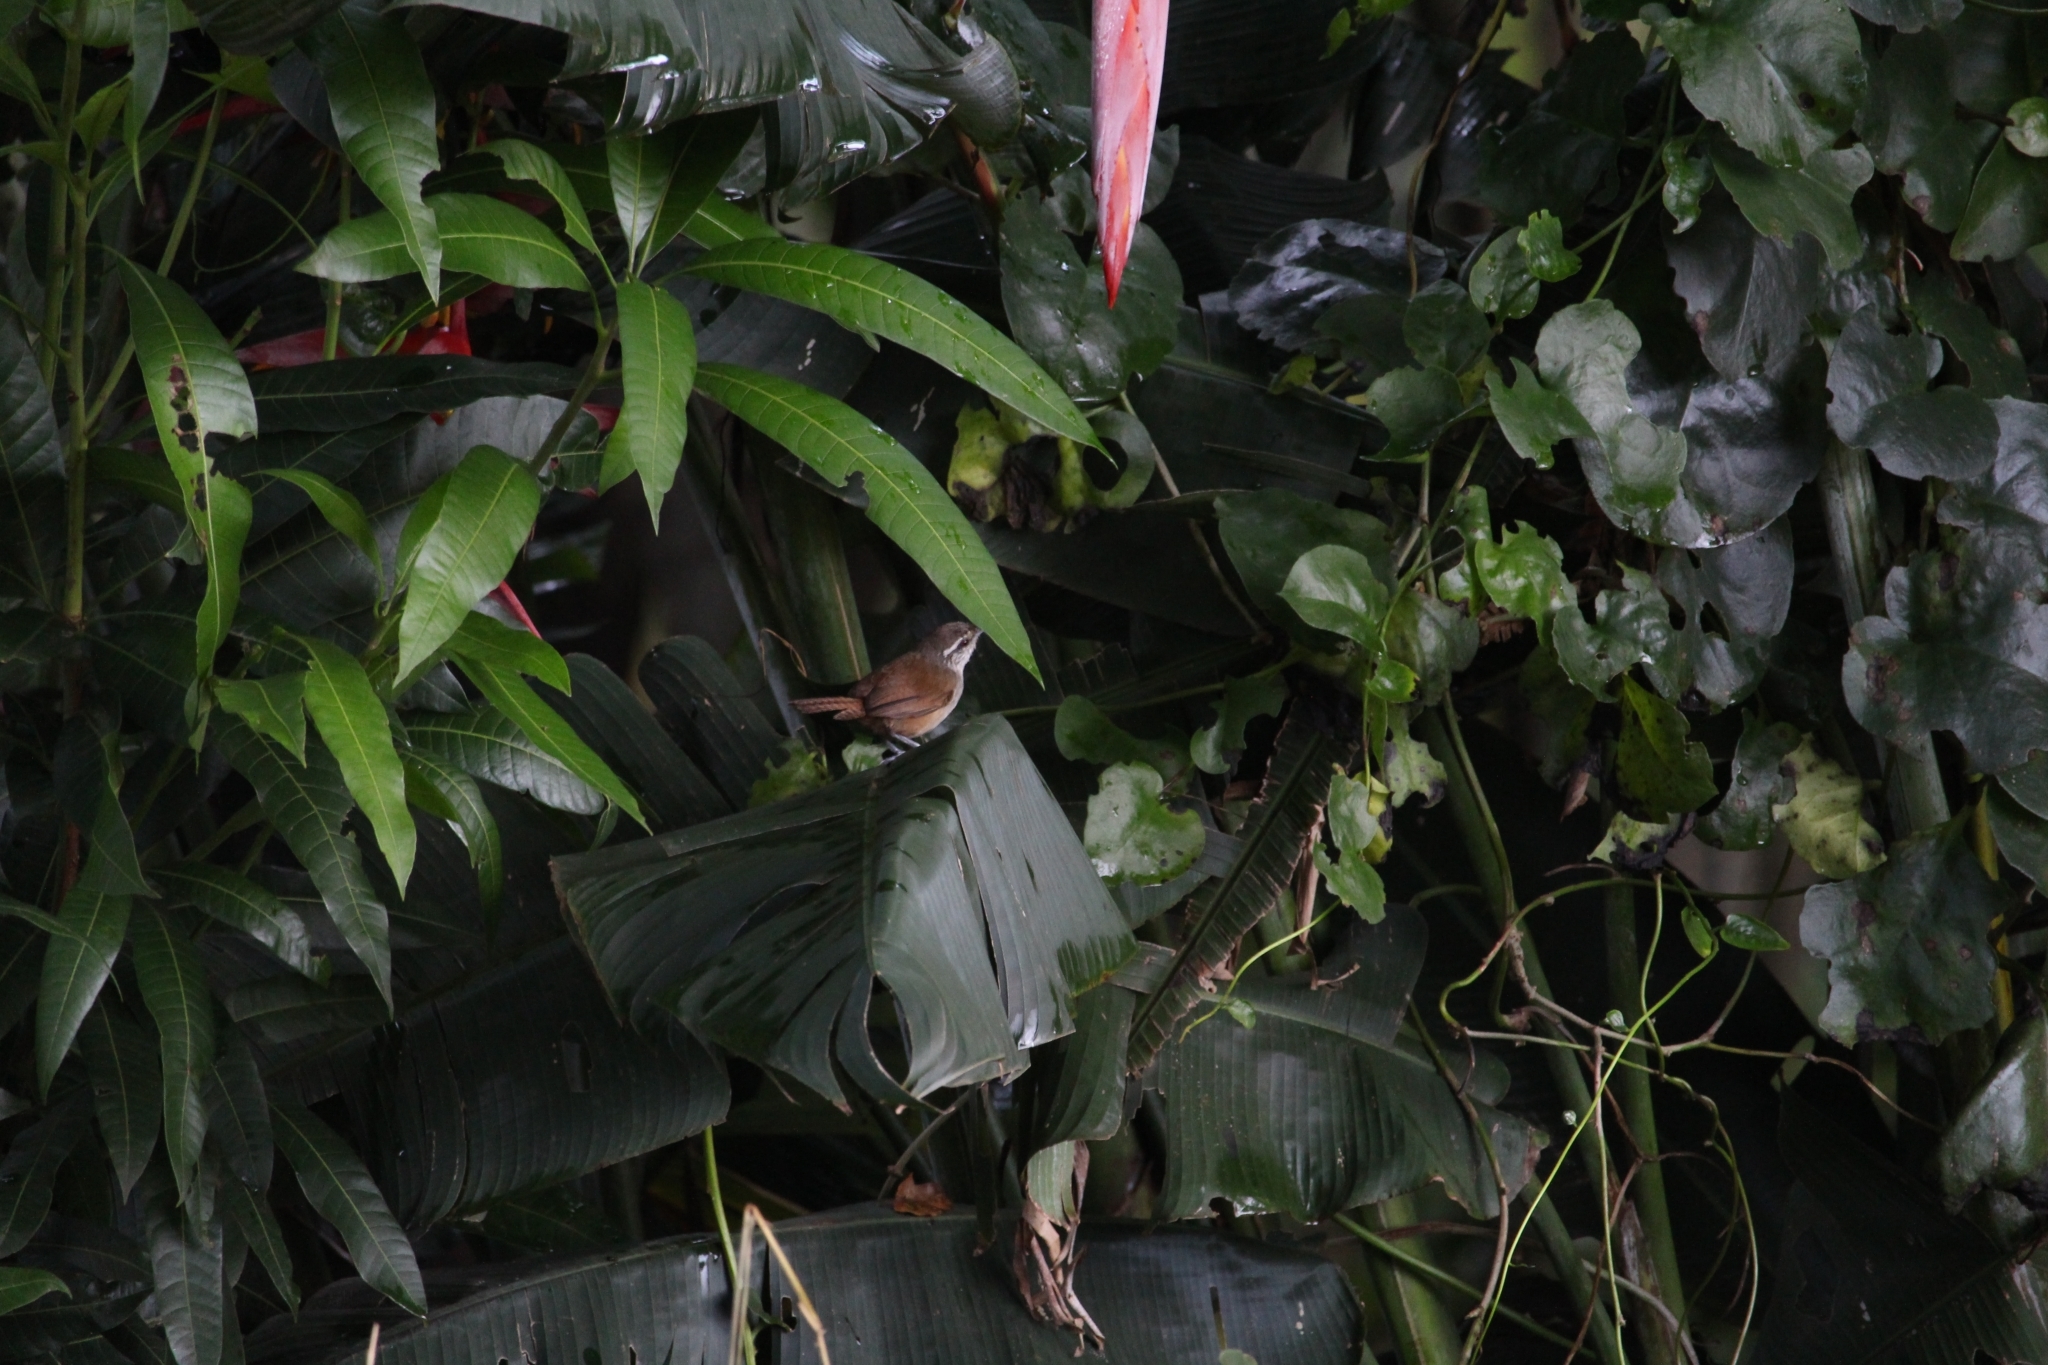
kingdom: Animalia
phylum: Chordata
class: Aves
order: Passeriformes
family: Troglodytidae
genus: Cantorchilus
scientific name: Cantorchilus modestus
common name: Cabanis's wren
